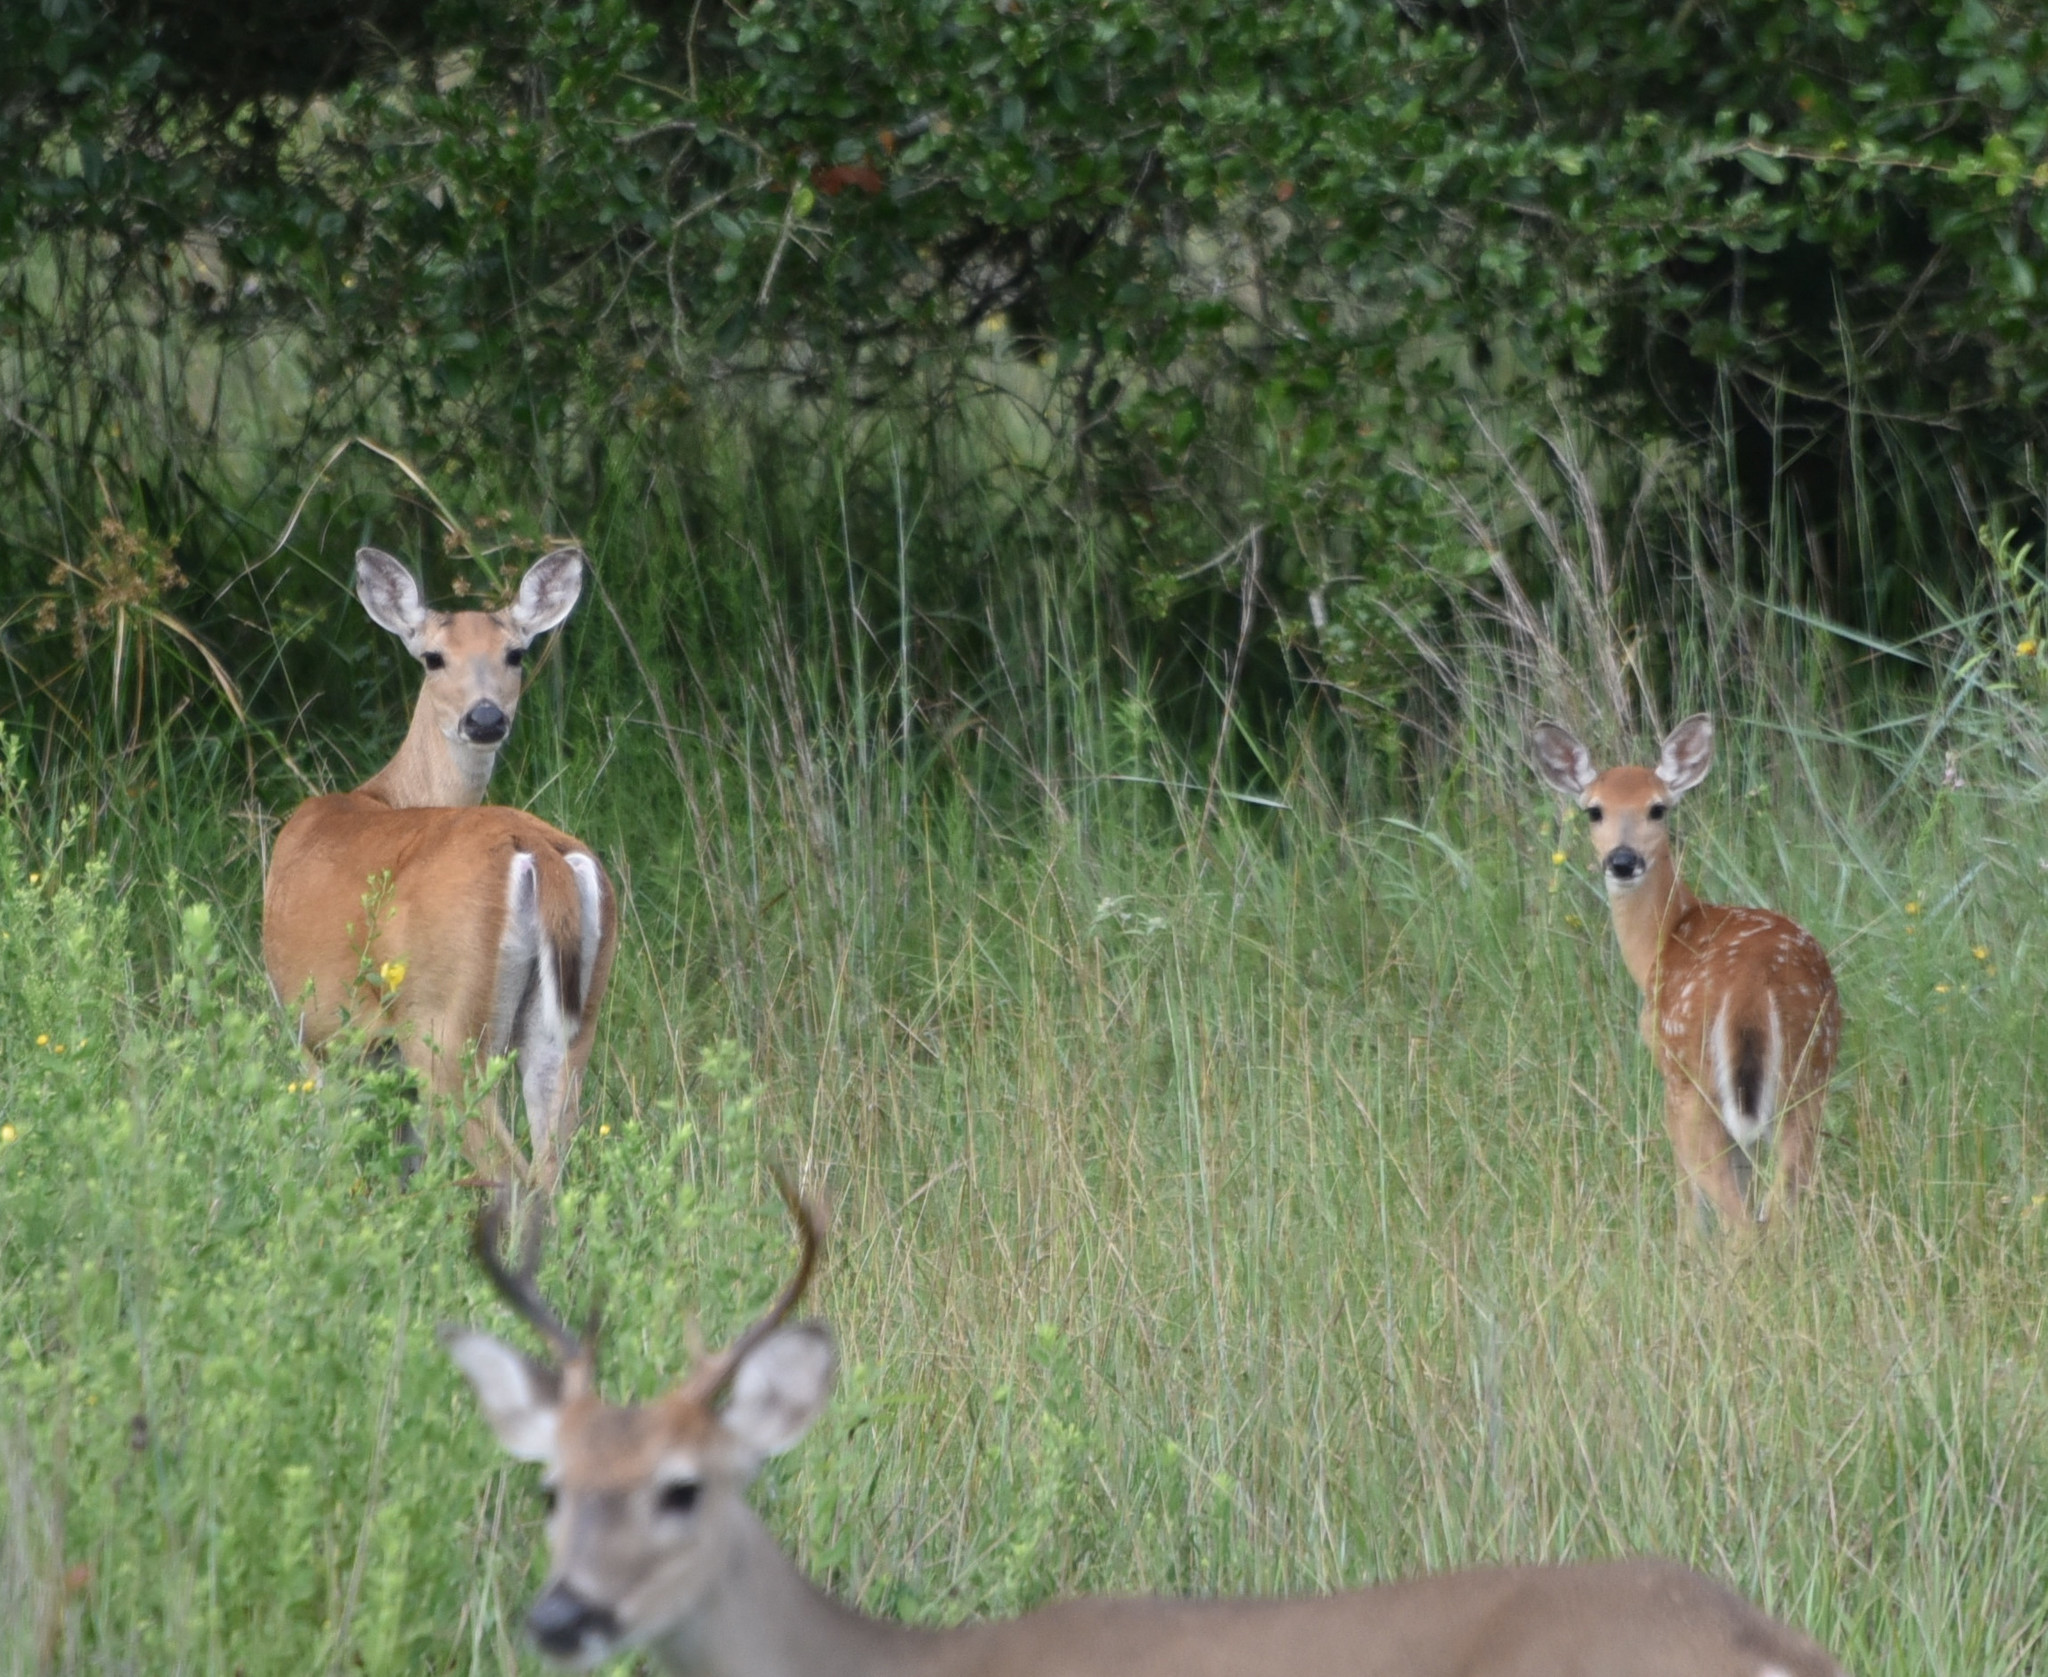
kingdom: Animalia
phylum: Chordata
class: Mammalia
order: Artiodactyla
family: Cervidae
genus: Odocoileus
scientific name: Odocoileus virginianus
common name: White-tailed deer
